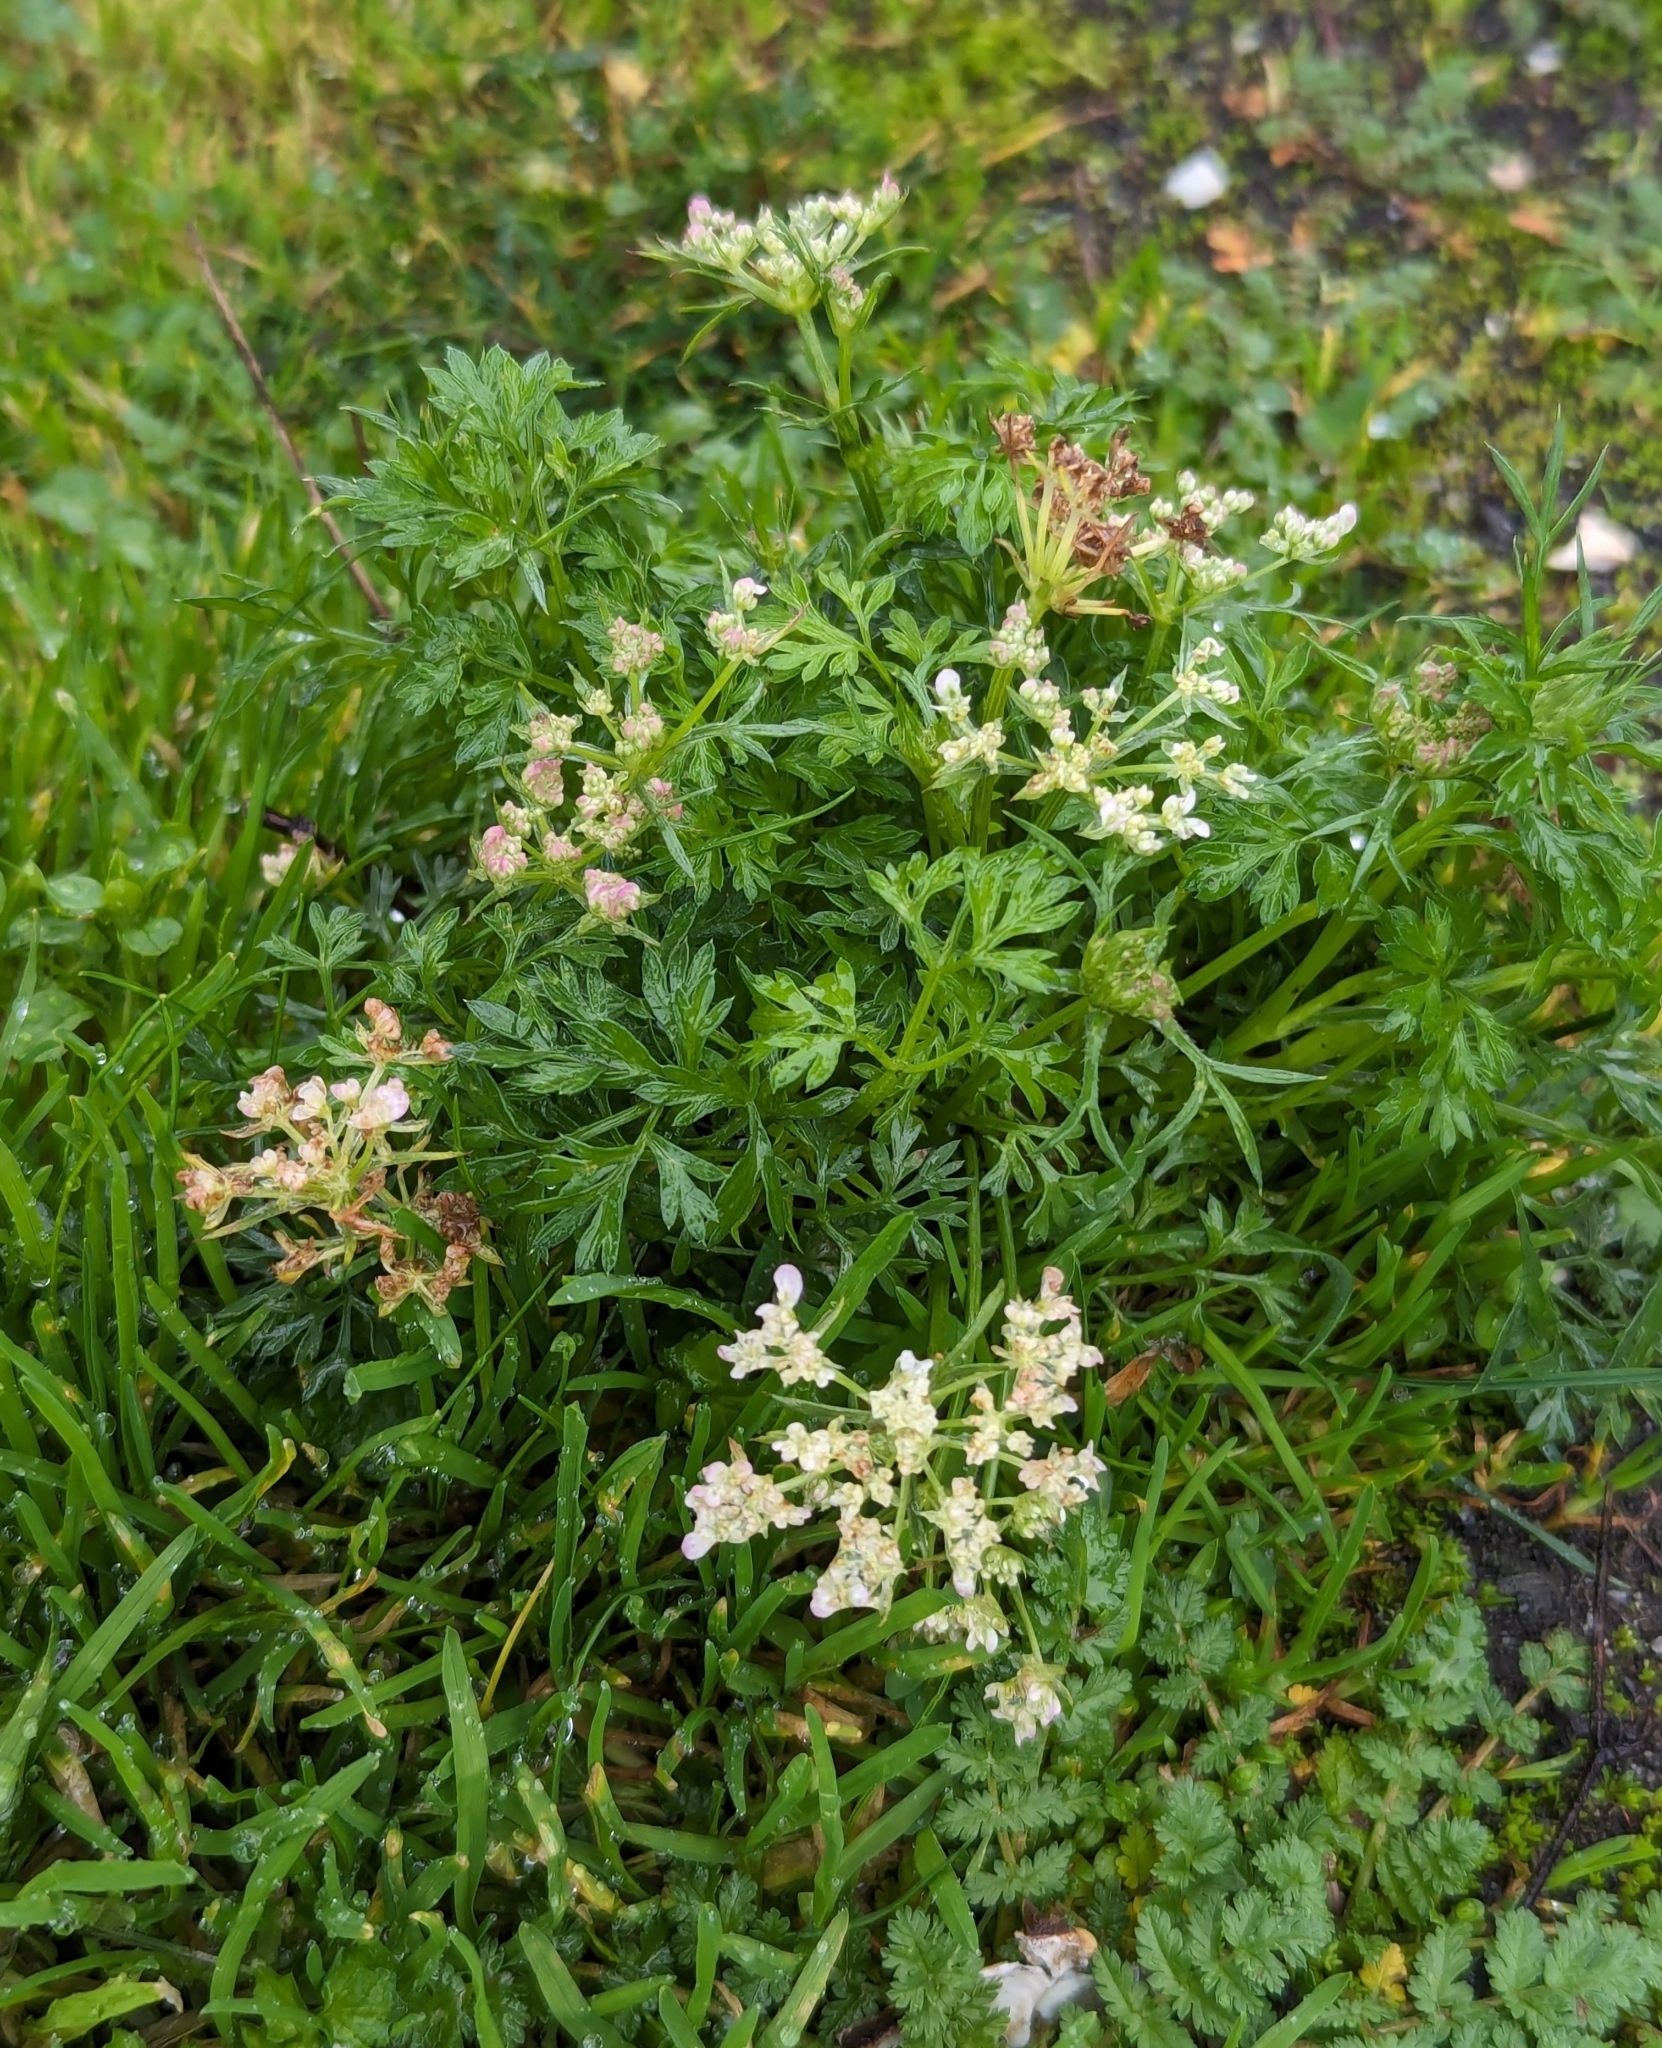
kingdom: Plantae
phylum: Tracheophyta
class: Magnoliopsida
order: Apiales
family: Apiaceae
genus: Daucus
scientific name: Daucus carota
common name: Wild carrot
